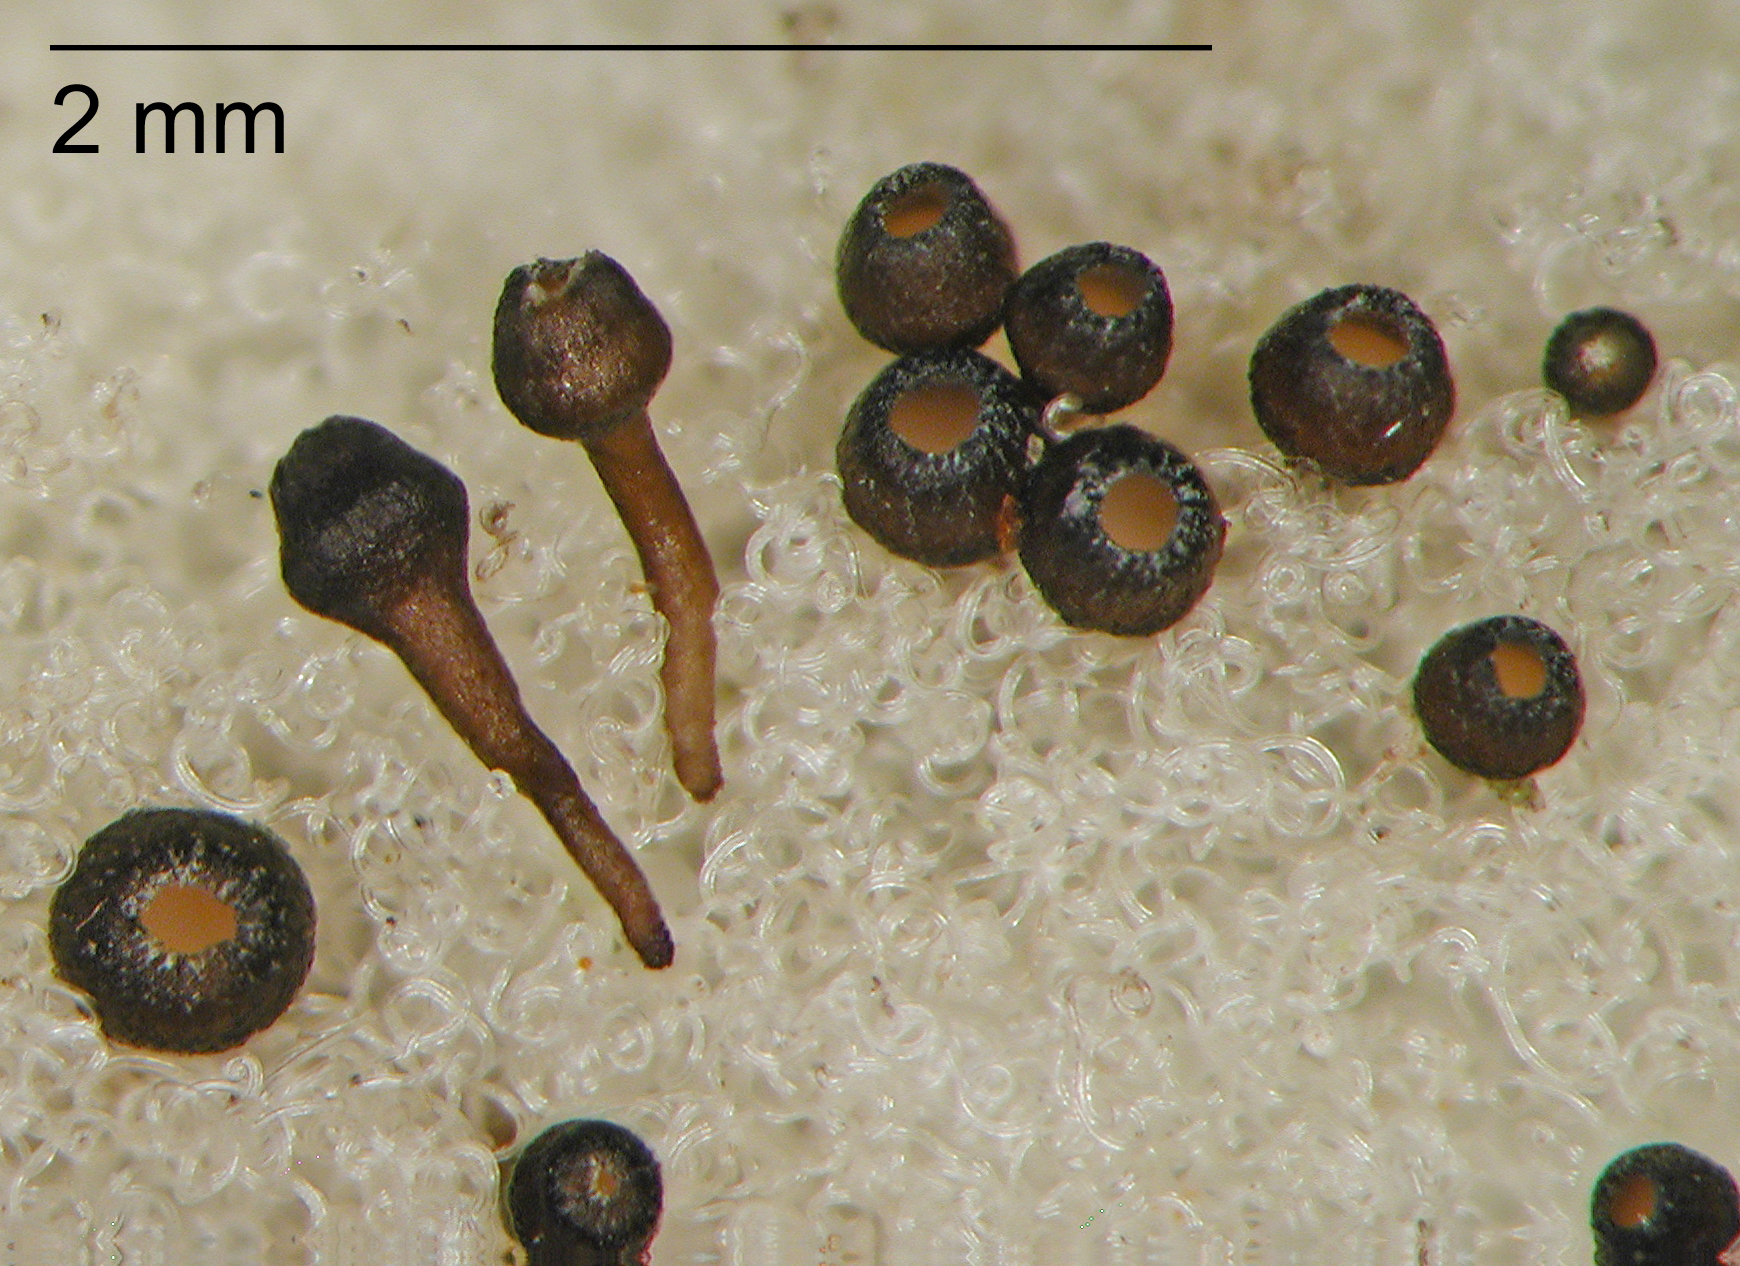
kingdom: Fungi
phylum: Ascomycota
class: Leotiomycetes
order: Helotiales
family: Helotiaceae
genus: Crocicreas
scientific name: Crocicreas macrostipitatum
